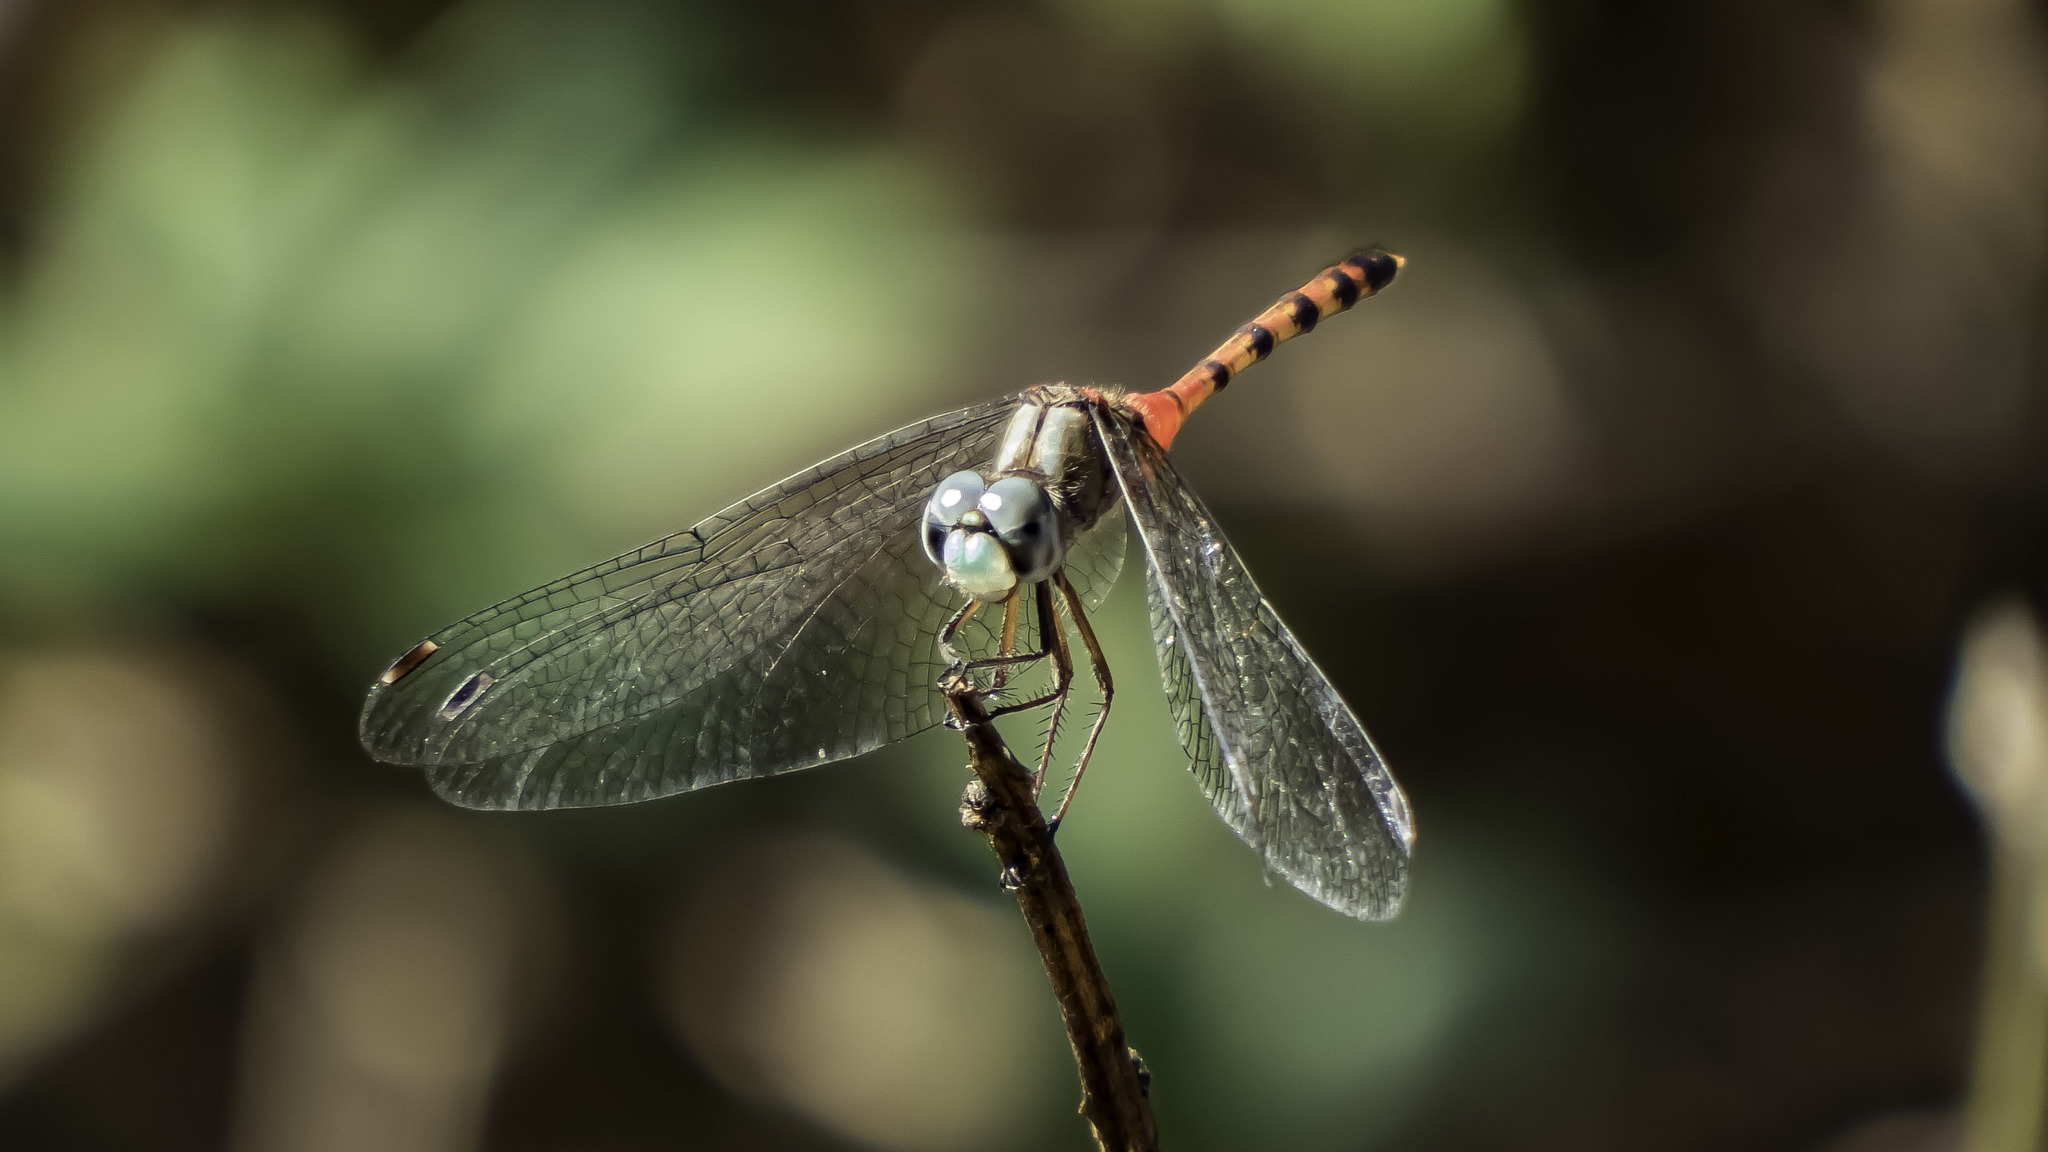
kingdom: Animalia
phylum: Arthropoda
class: Insecta
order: Odonata
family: Libellulidae
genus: Sympetrum
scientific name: Sympetrum ambiguum
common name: Blue-faced meadowhawk
